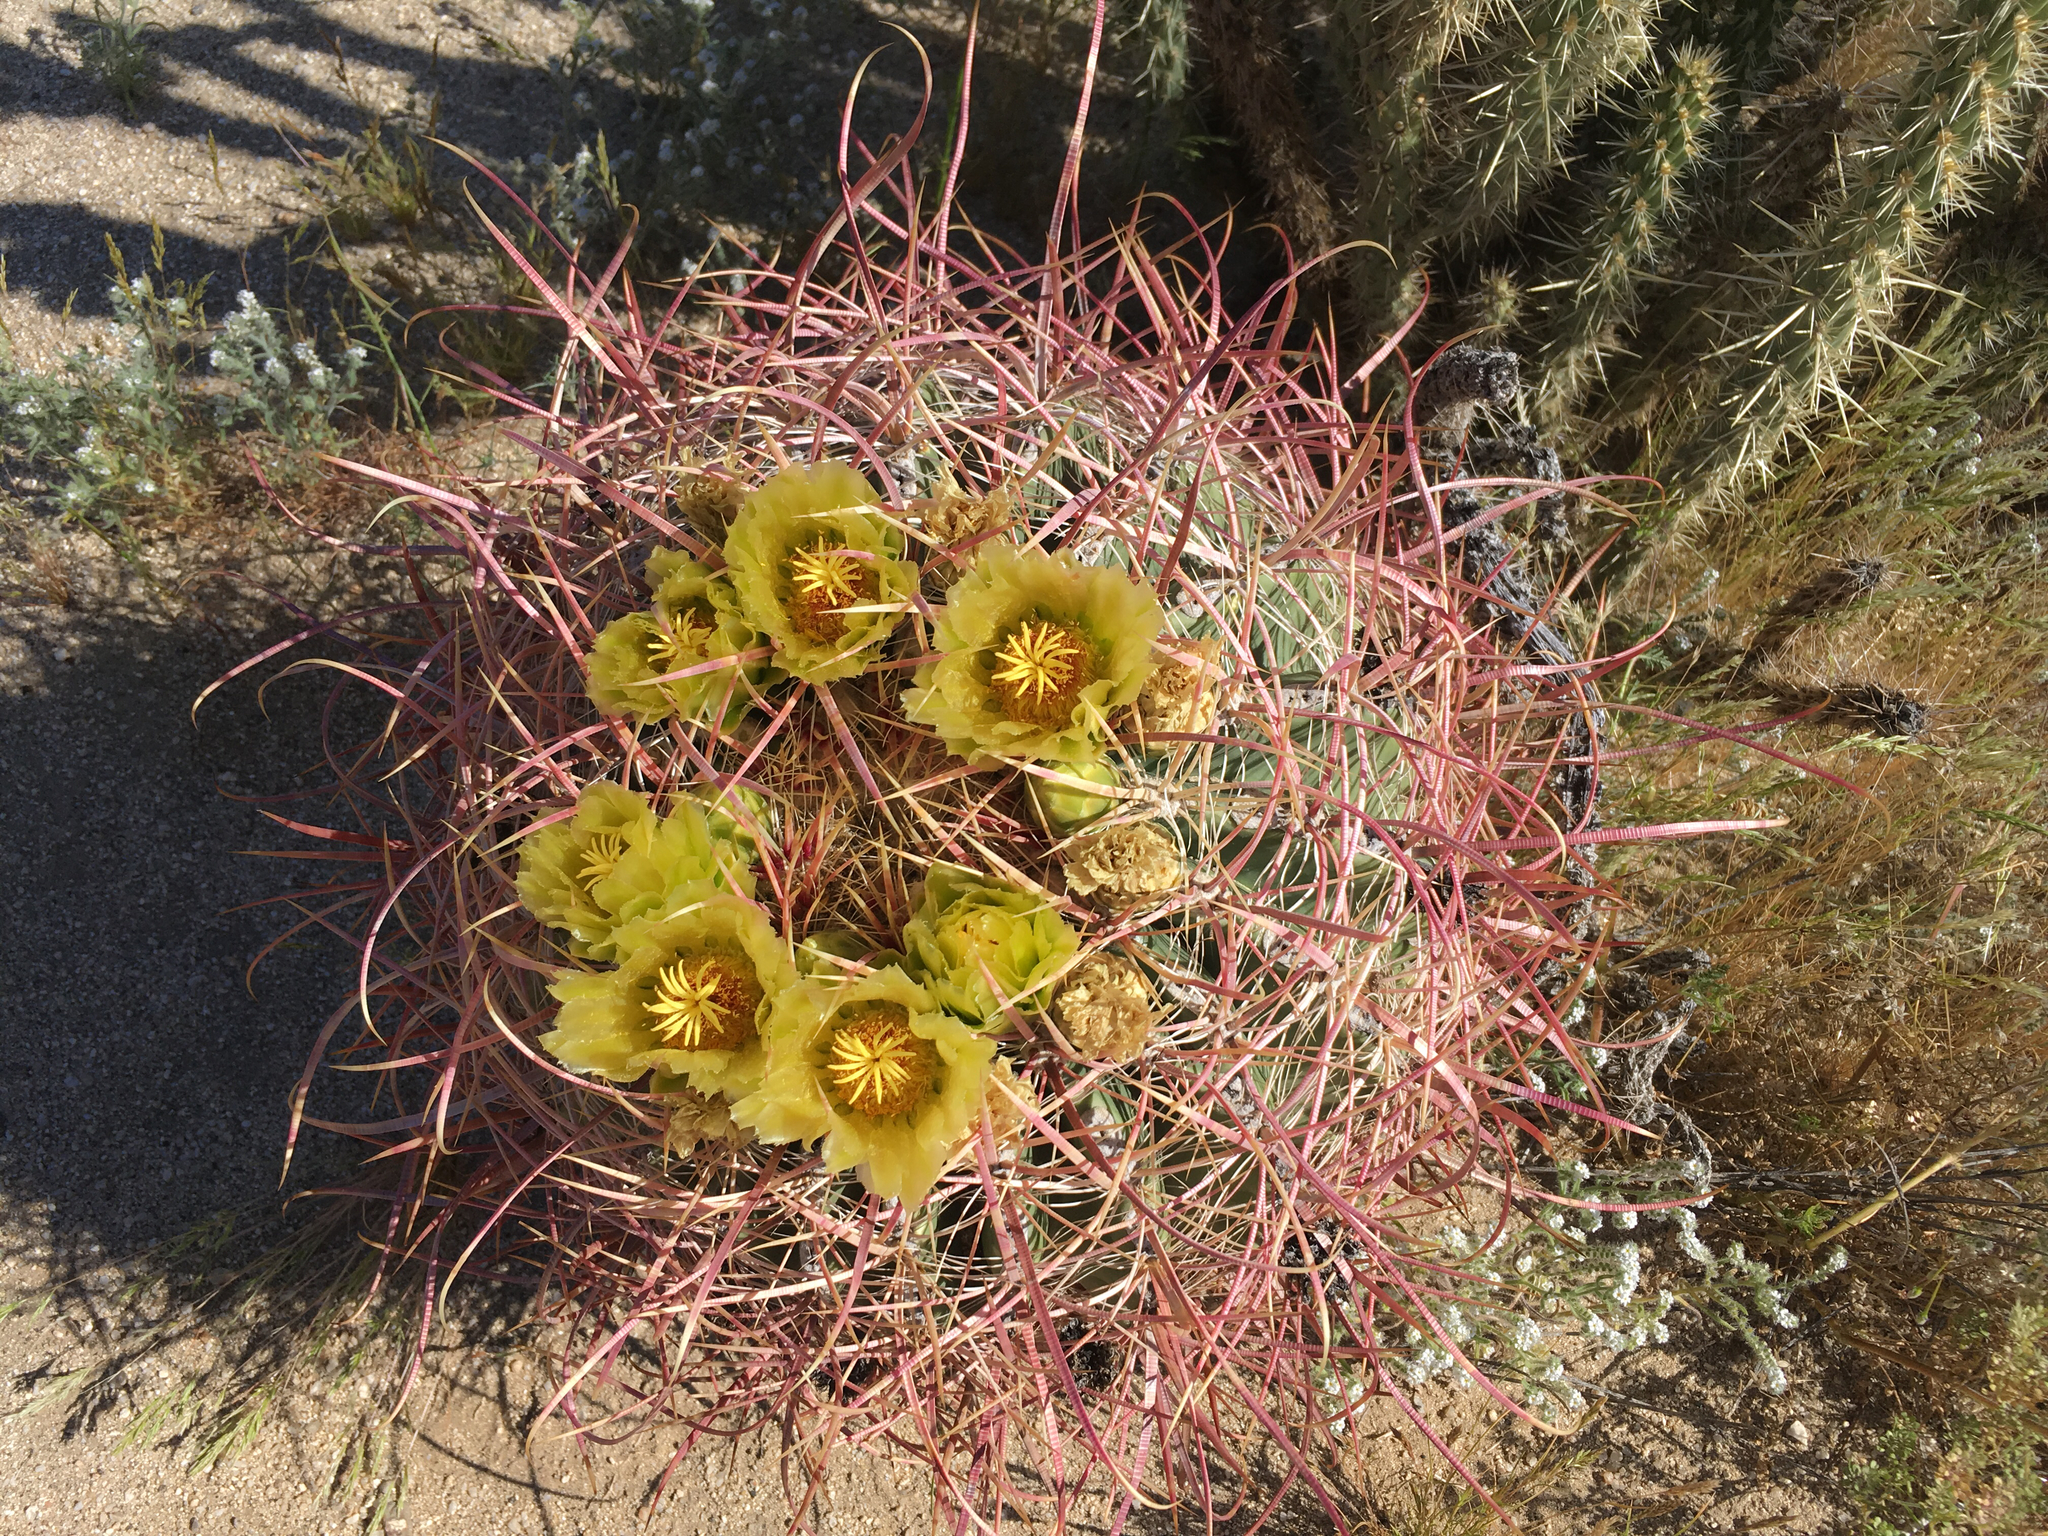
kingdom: Plantae
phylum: Tracheophyta
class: Magnoliopsida
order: Caryophyllales
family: Cactaceae
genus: Ferocactus
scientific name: Ferocactus cylindraceus
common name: California barrel cactus
